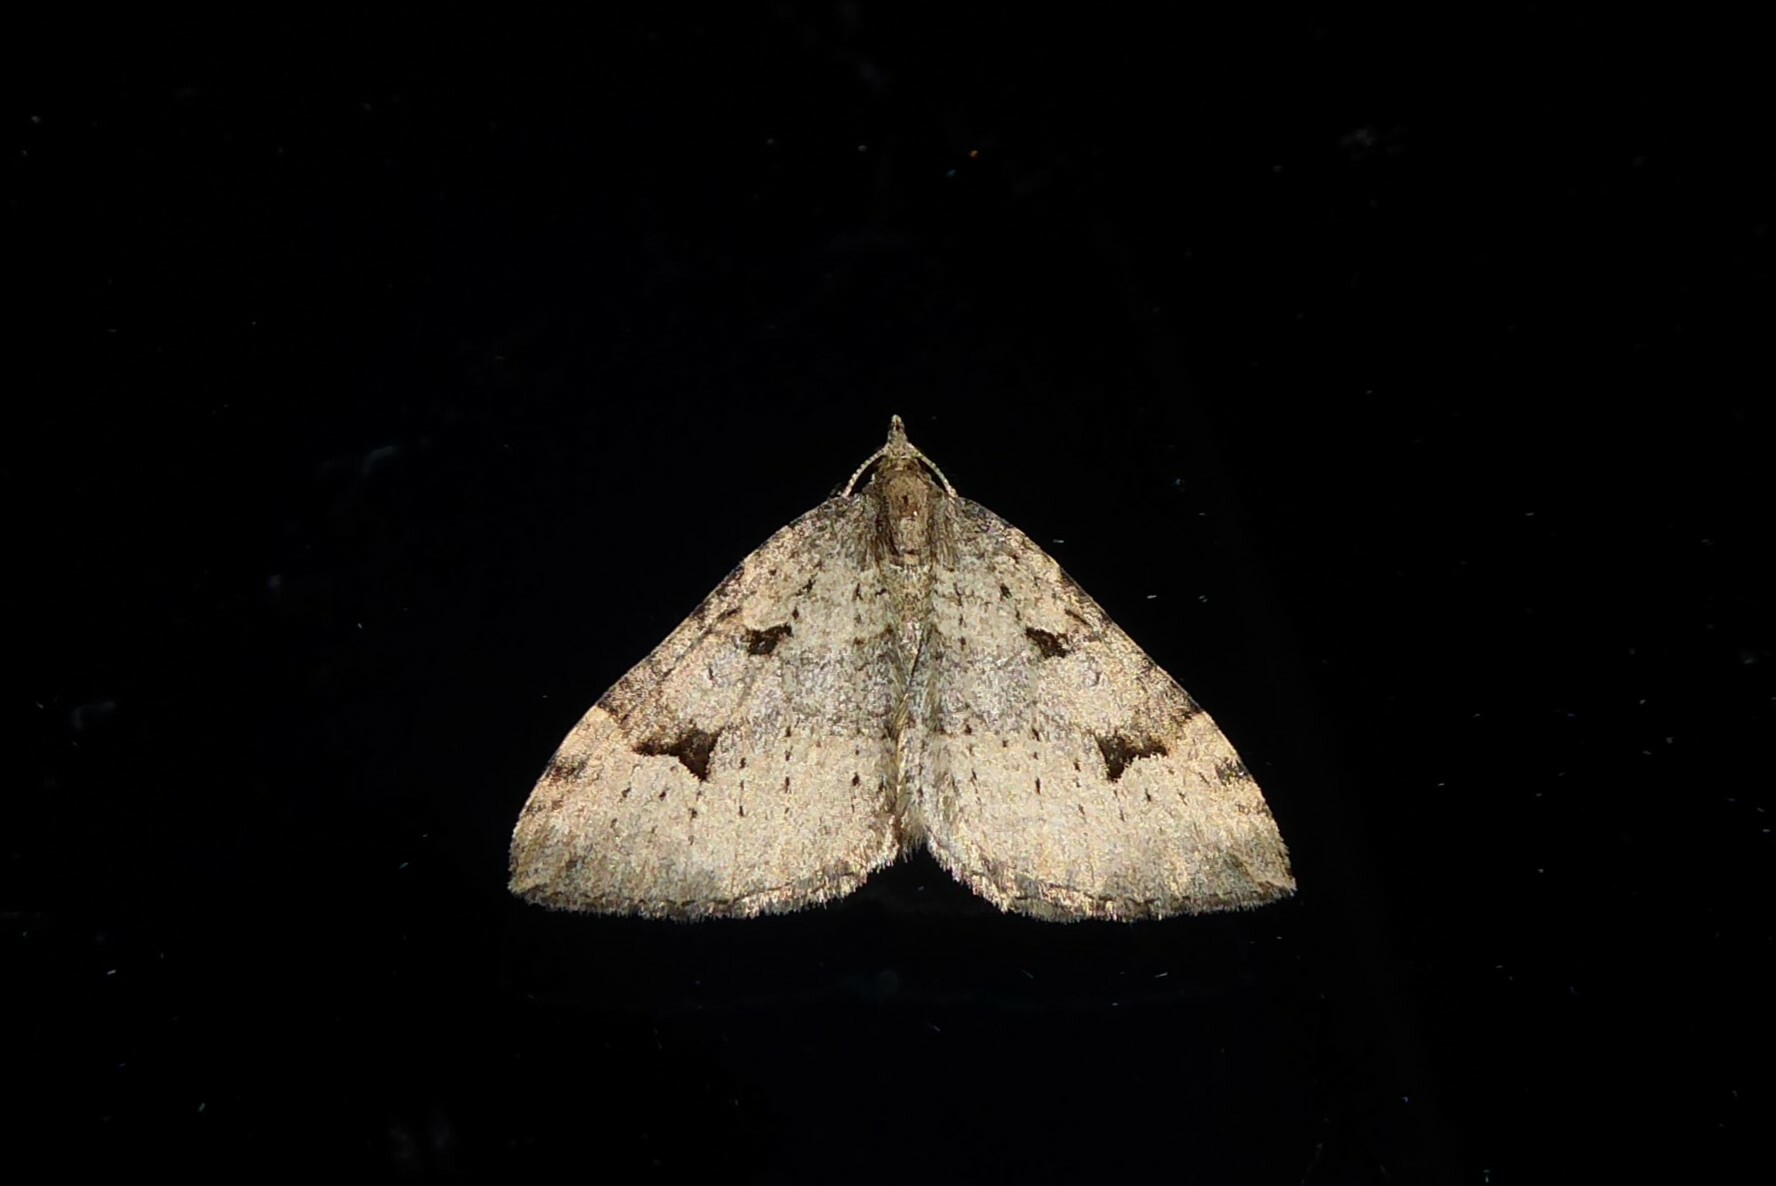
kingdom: Animalia
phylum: Arthropoda
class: Insecta
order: Lepidoptera
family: Geometridae
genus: Epyaxa
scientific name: Epyaxa rosearia
